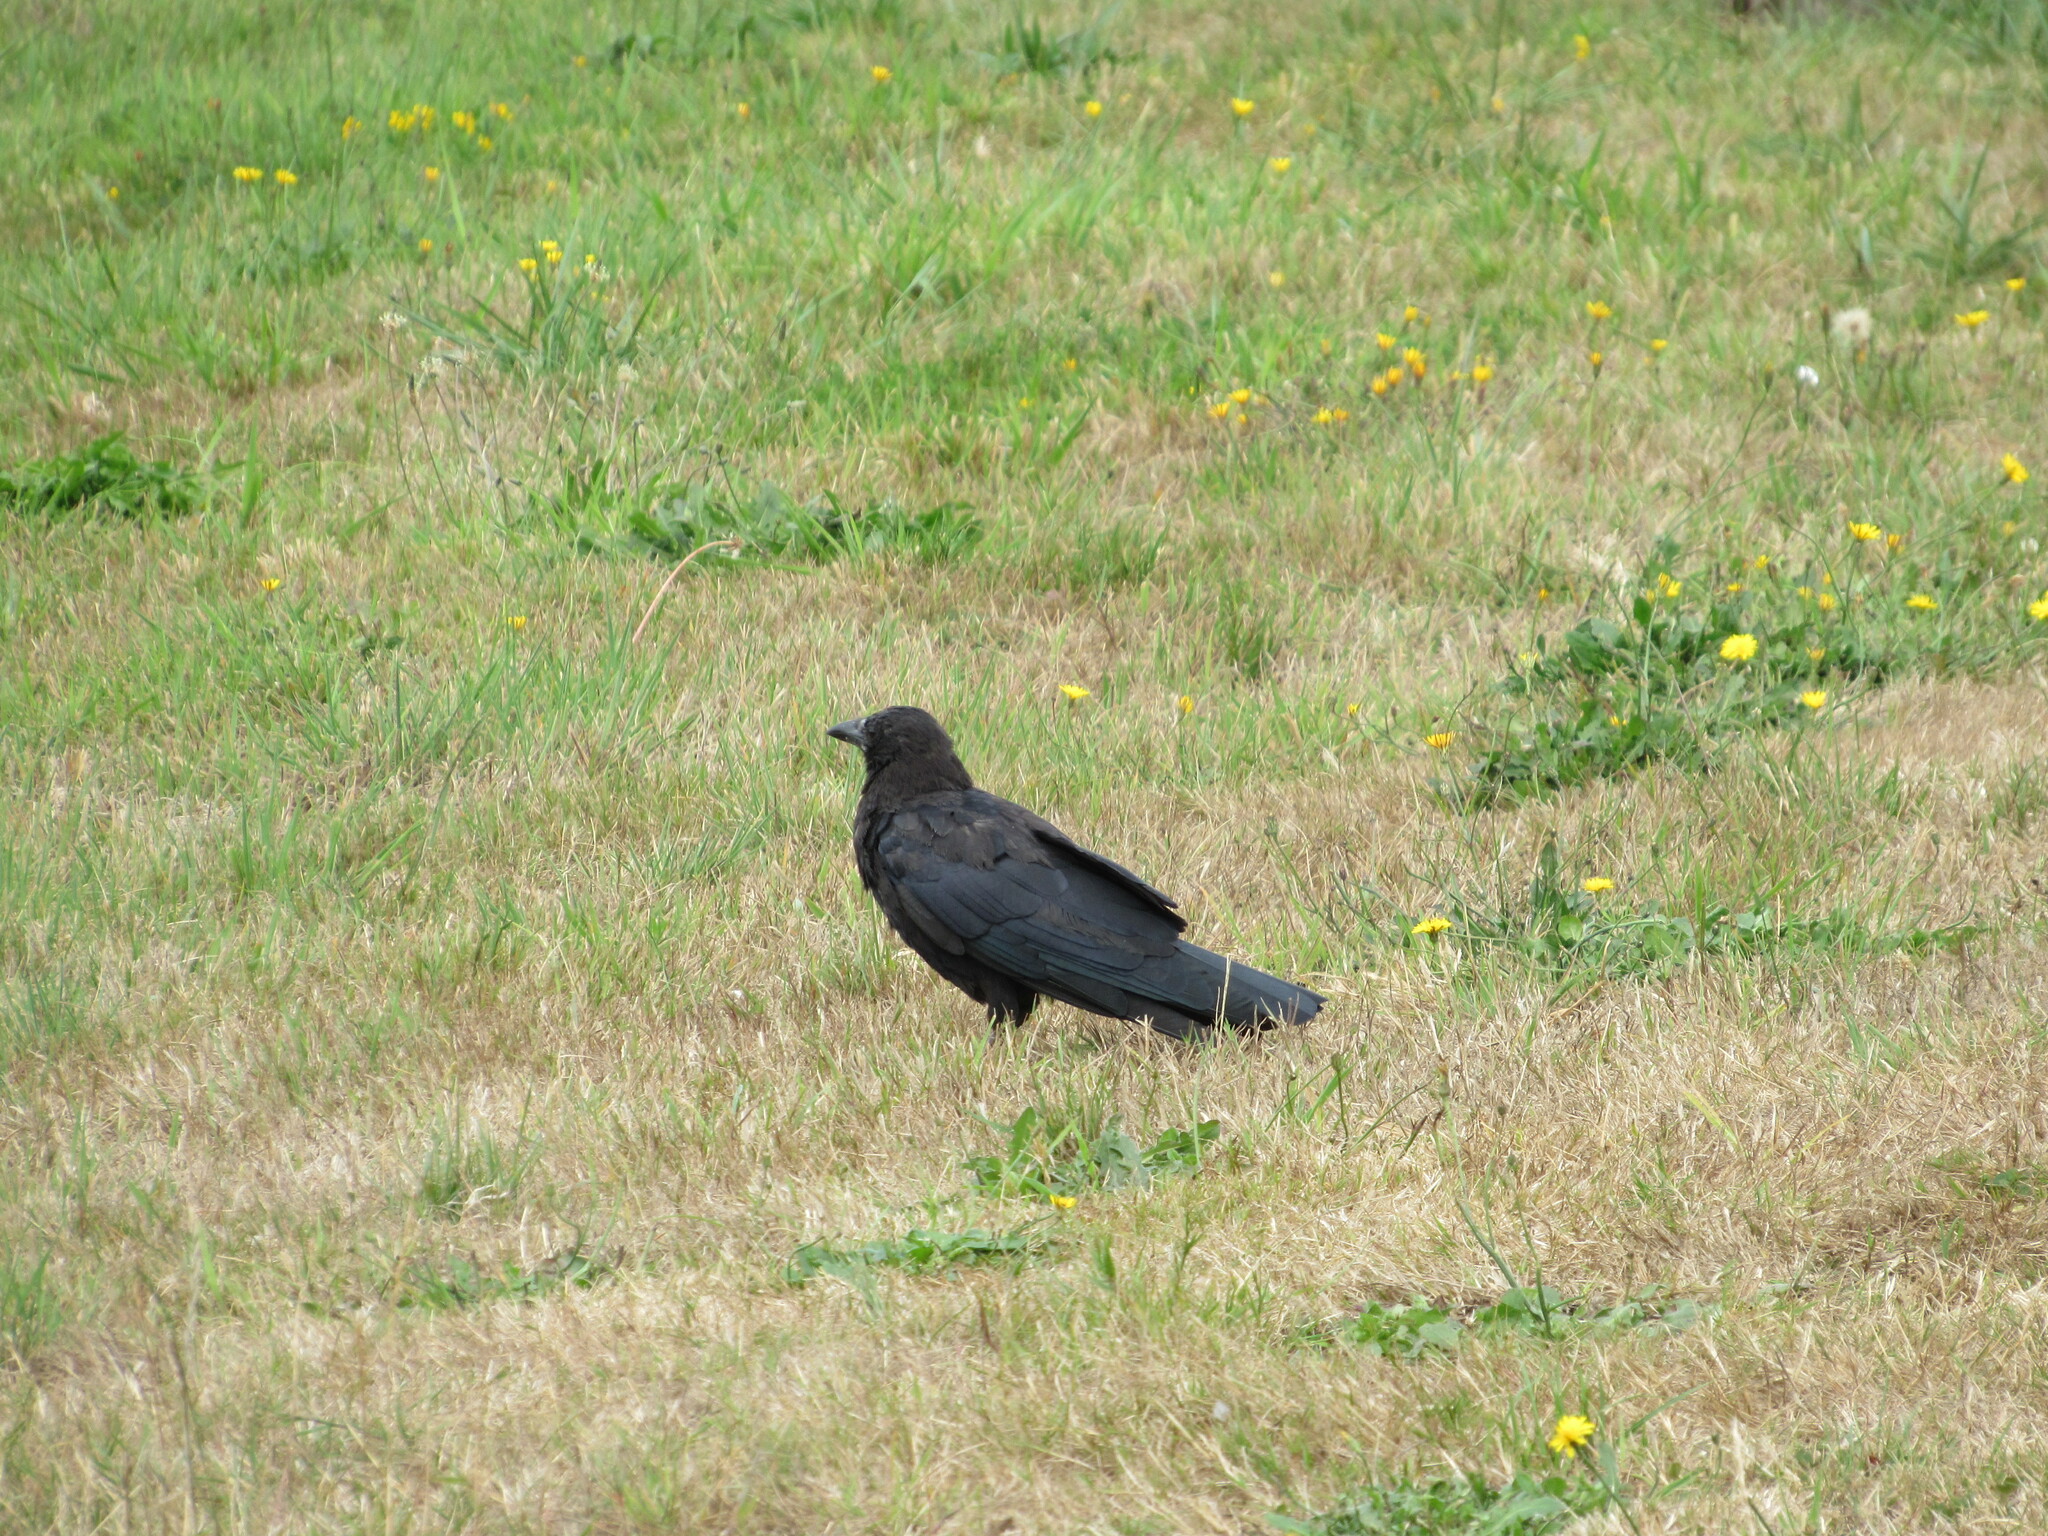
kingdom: Animalia
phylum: Chordata
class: Aves
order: Passeriformes
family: Corvidae
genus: Corvus
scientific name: Corvus brachyrhynchos
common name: American crow
